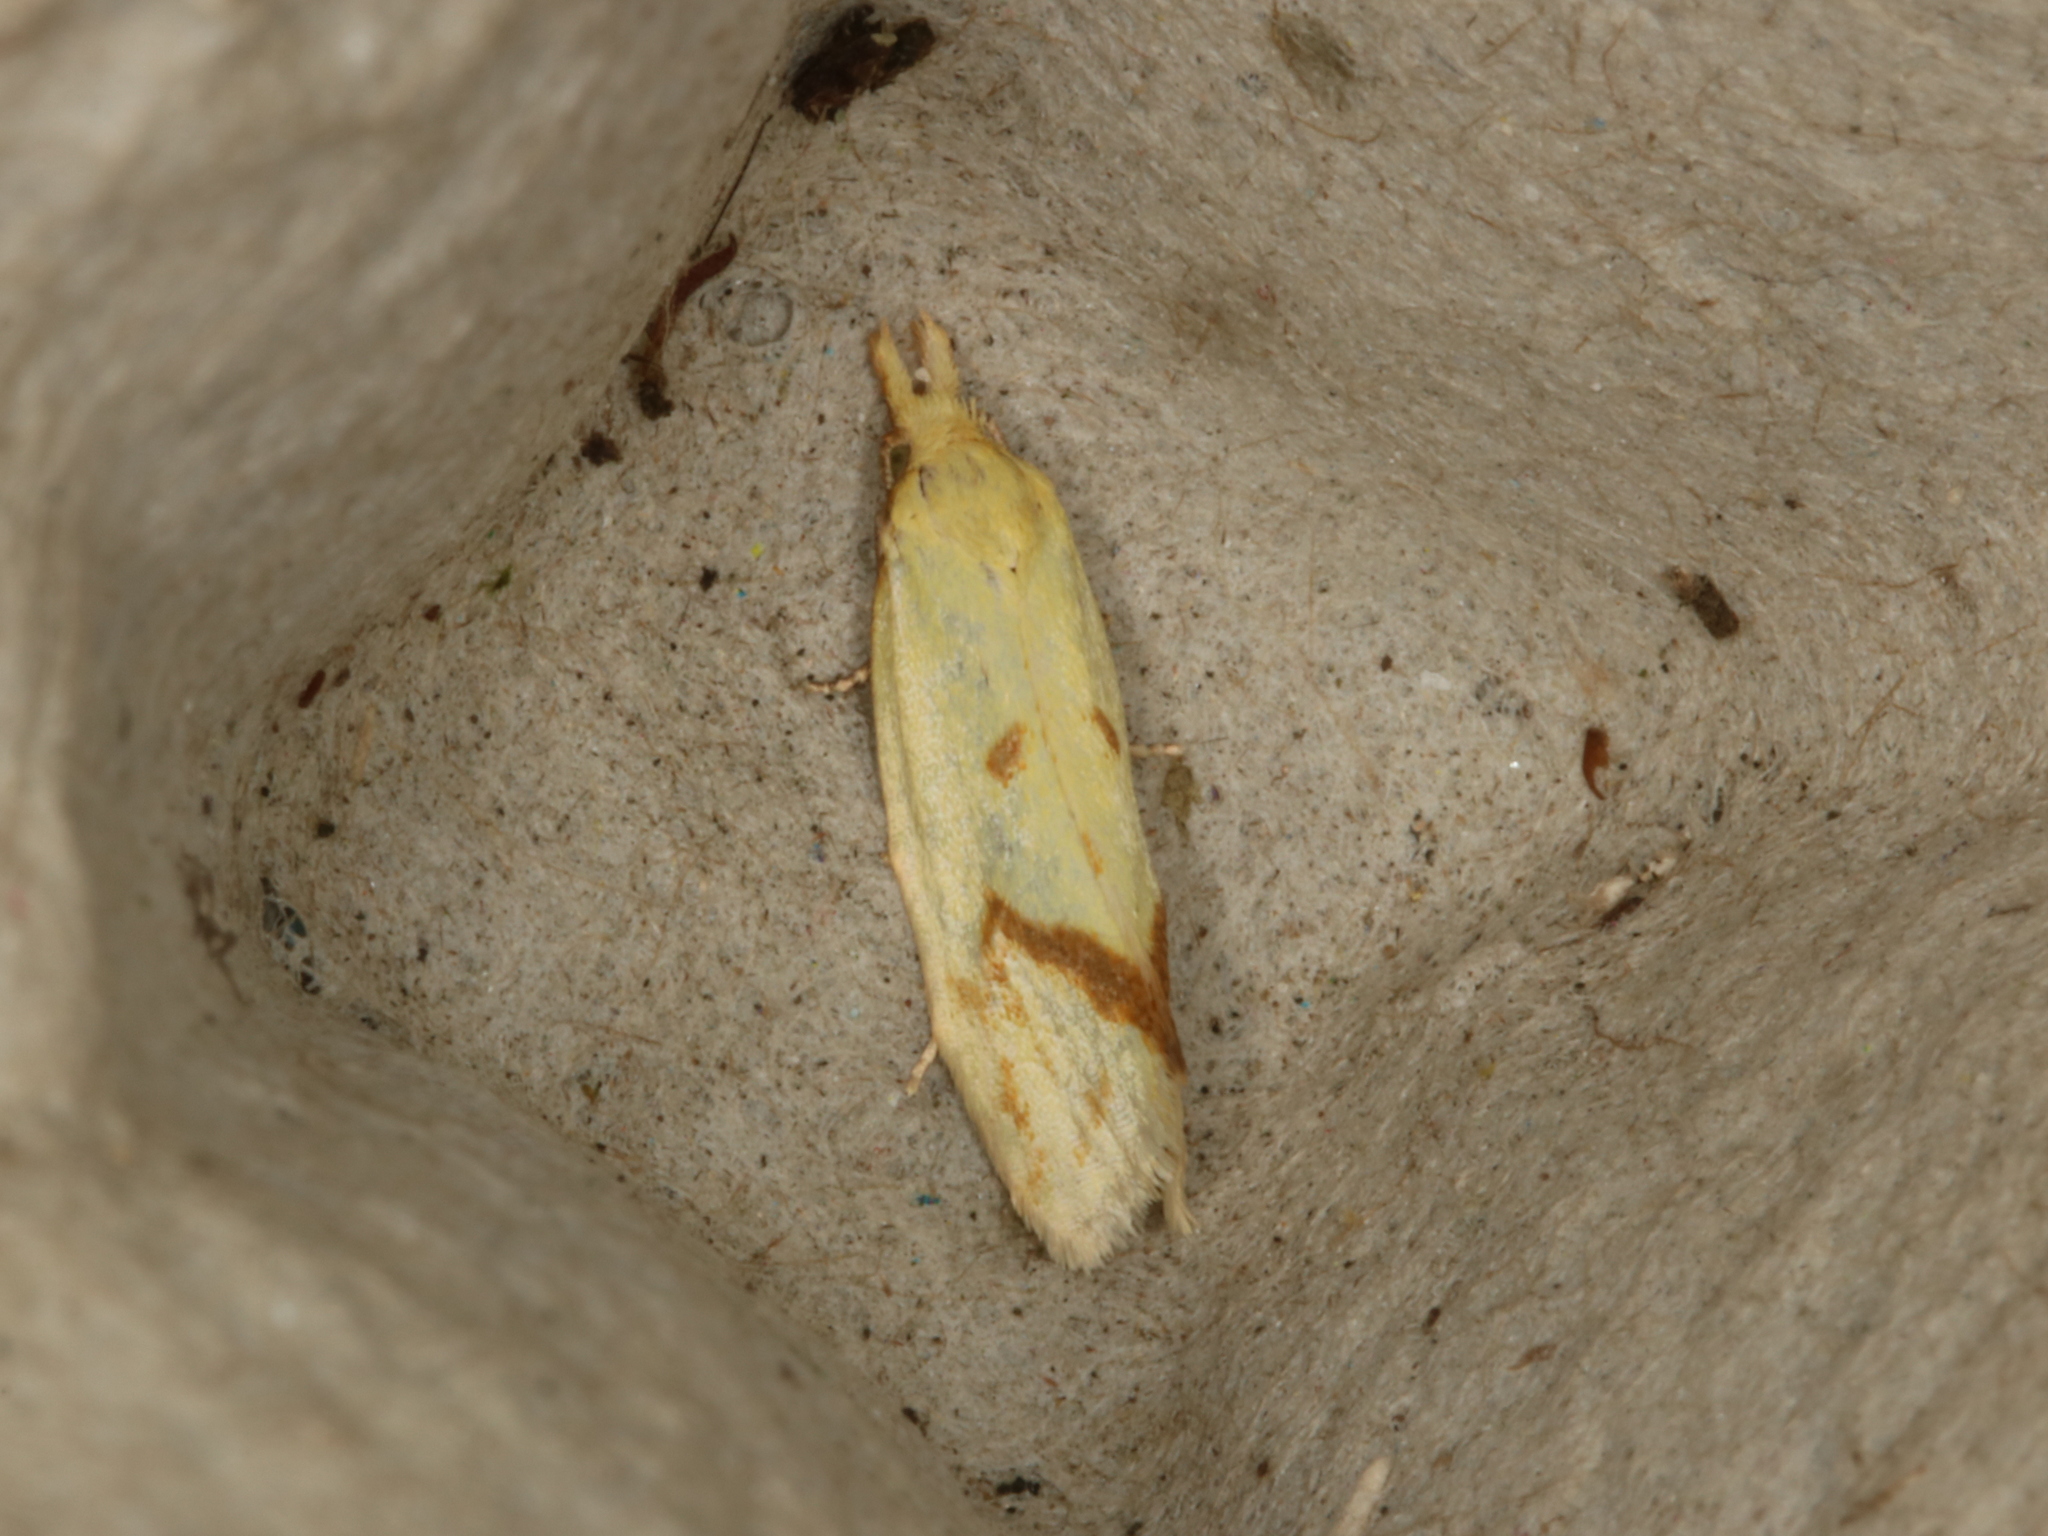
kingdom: Animalia
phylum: Arthropoda
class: Insecta
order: Lepidoptera
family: Tortricidae
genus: Agapeta
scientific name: Agapeta hamana
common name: Common yellow conch
